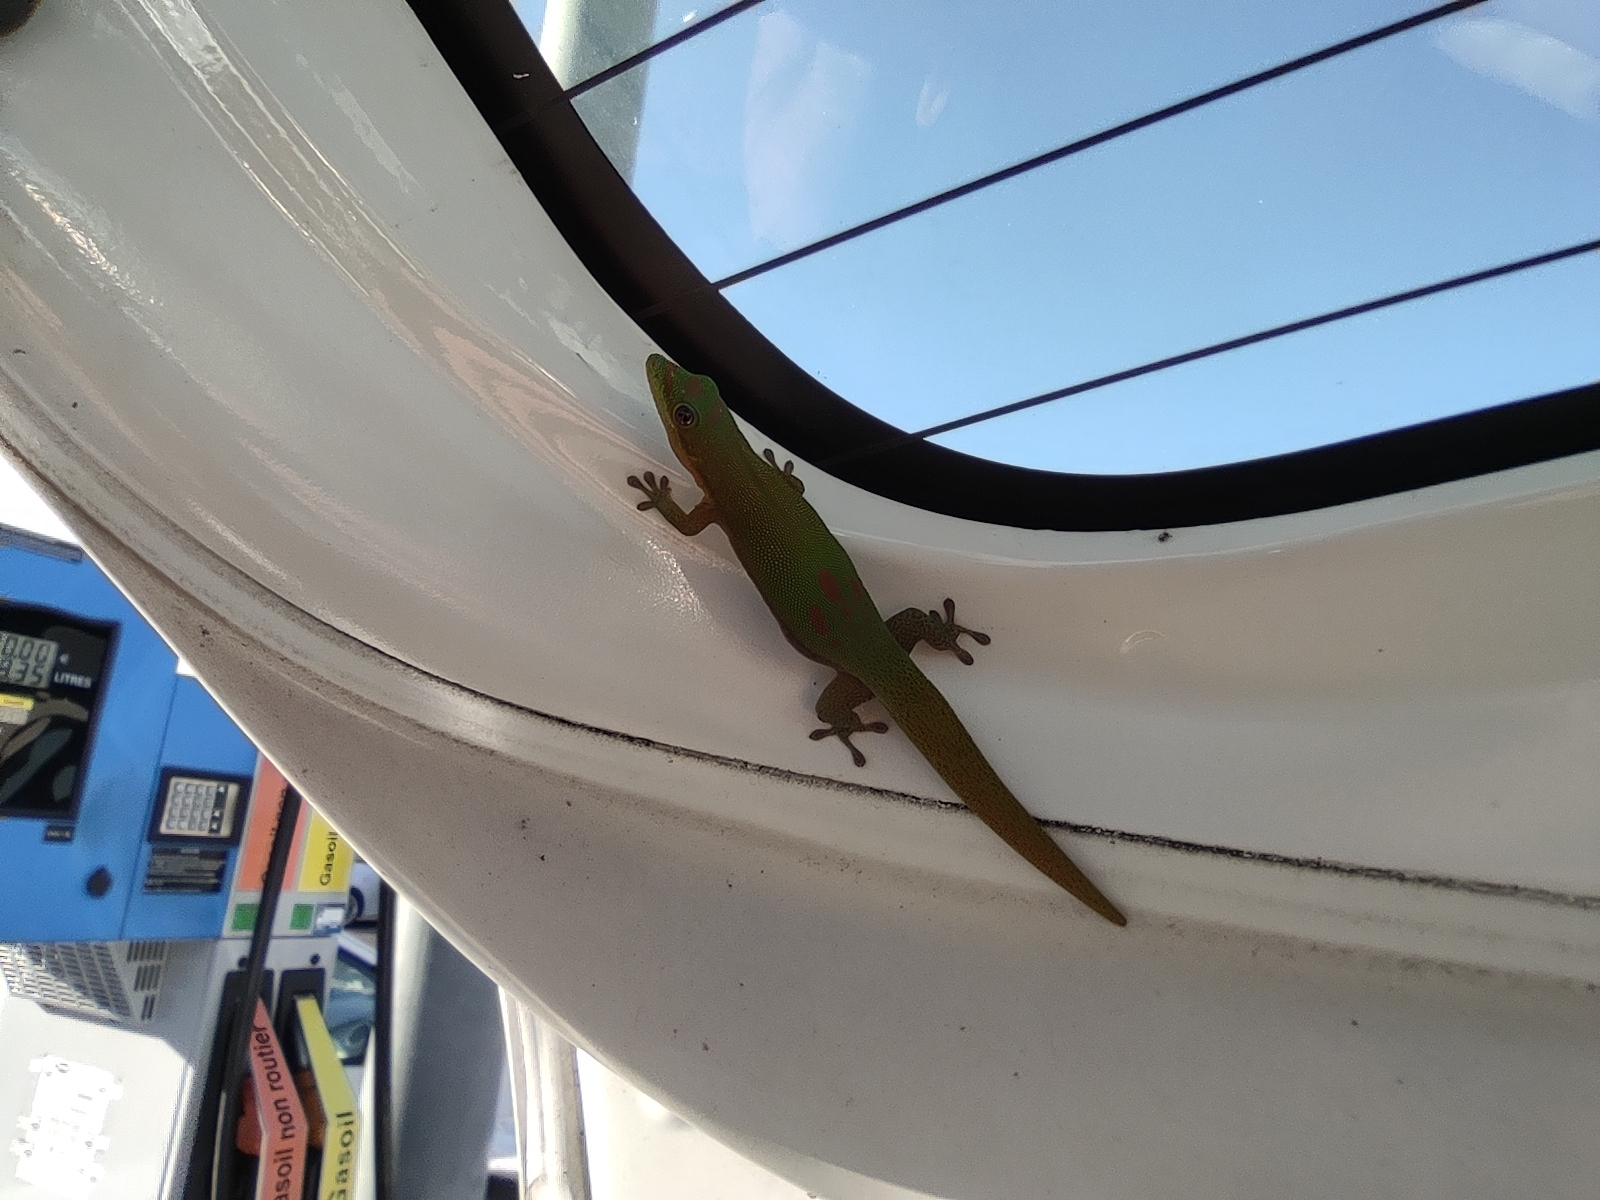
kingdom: Animalia
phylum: Chordata
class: Squamata
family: Gekkonidae
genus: Phelsuma
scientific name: Phelsuma laticauda
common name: Gold dust day gecko
